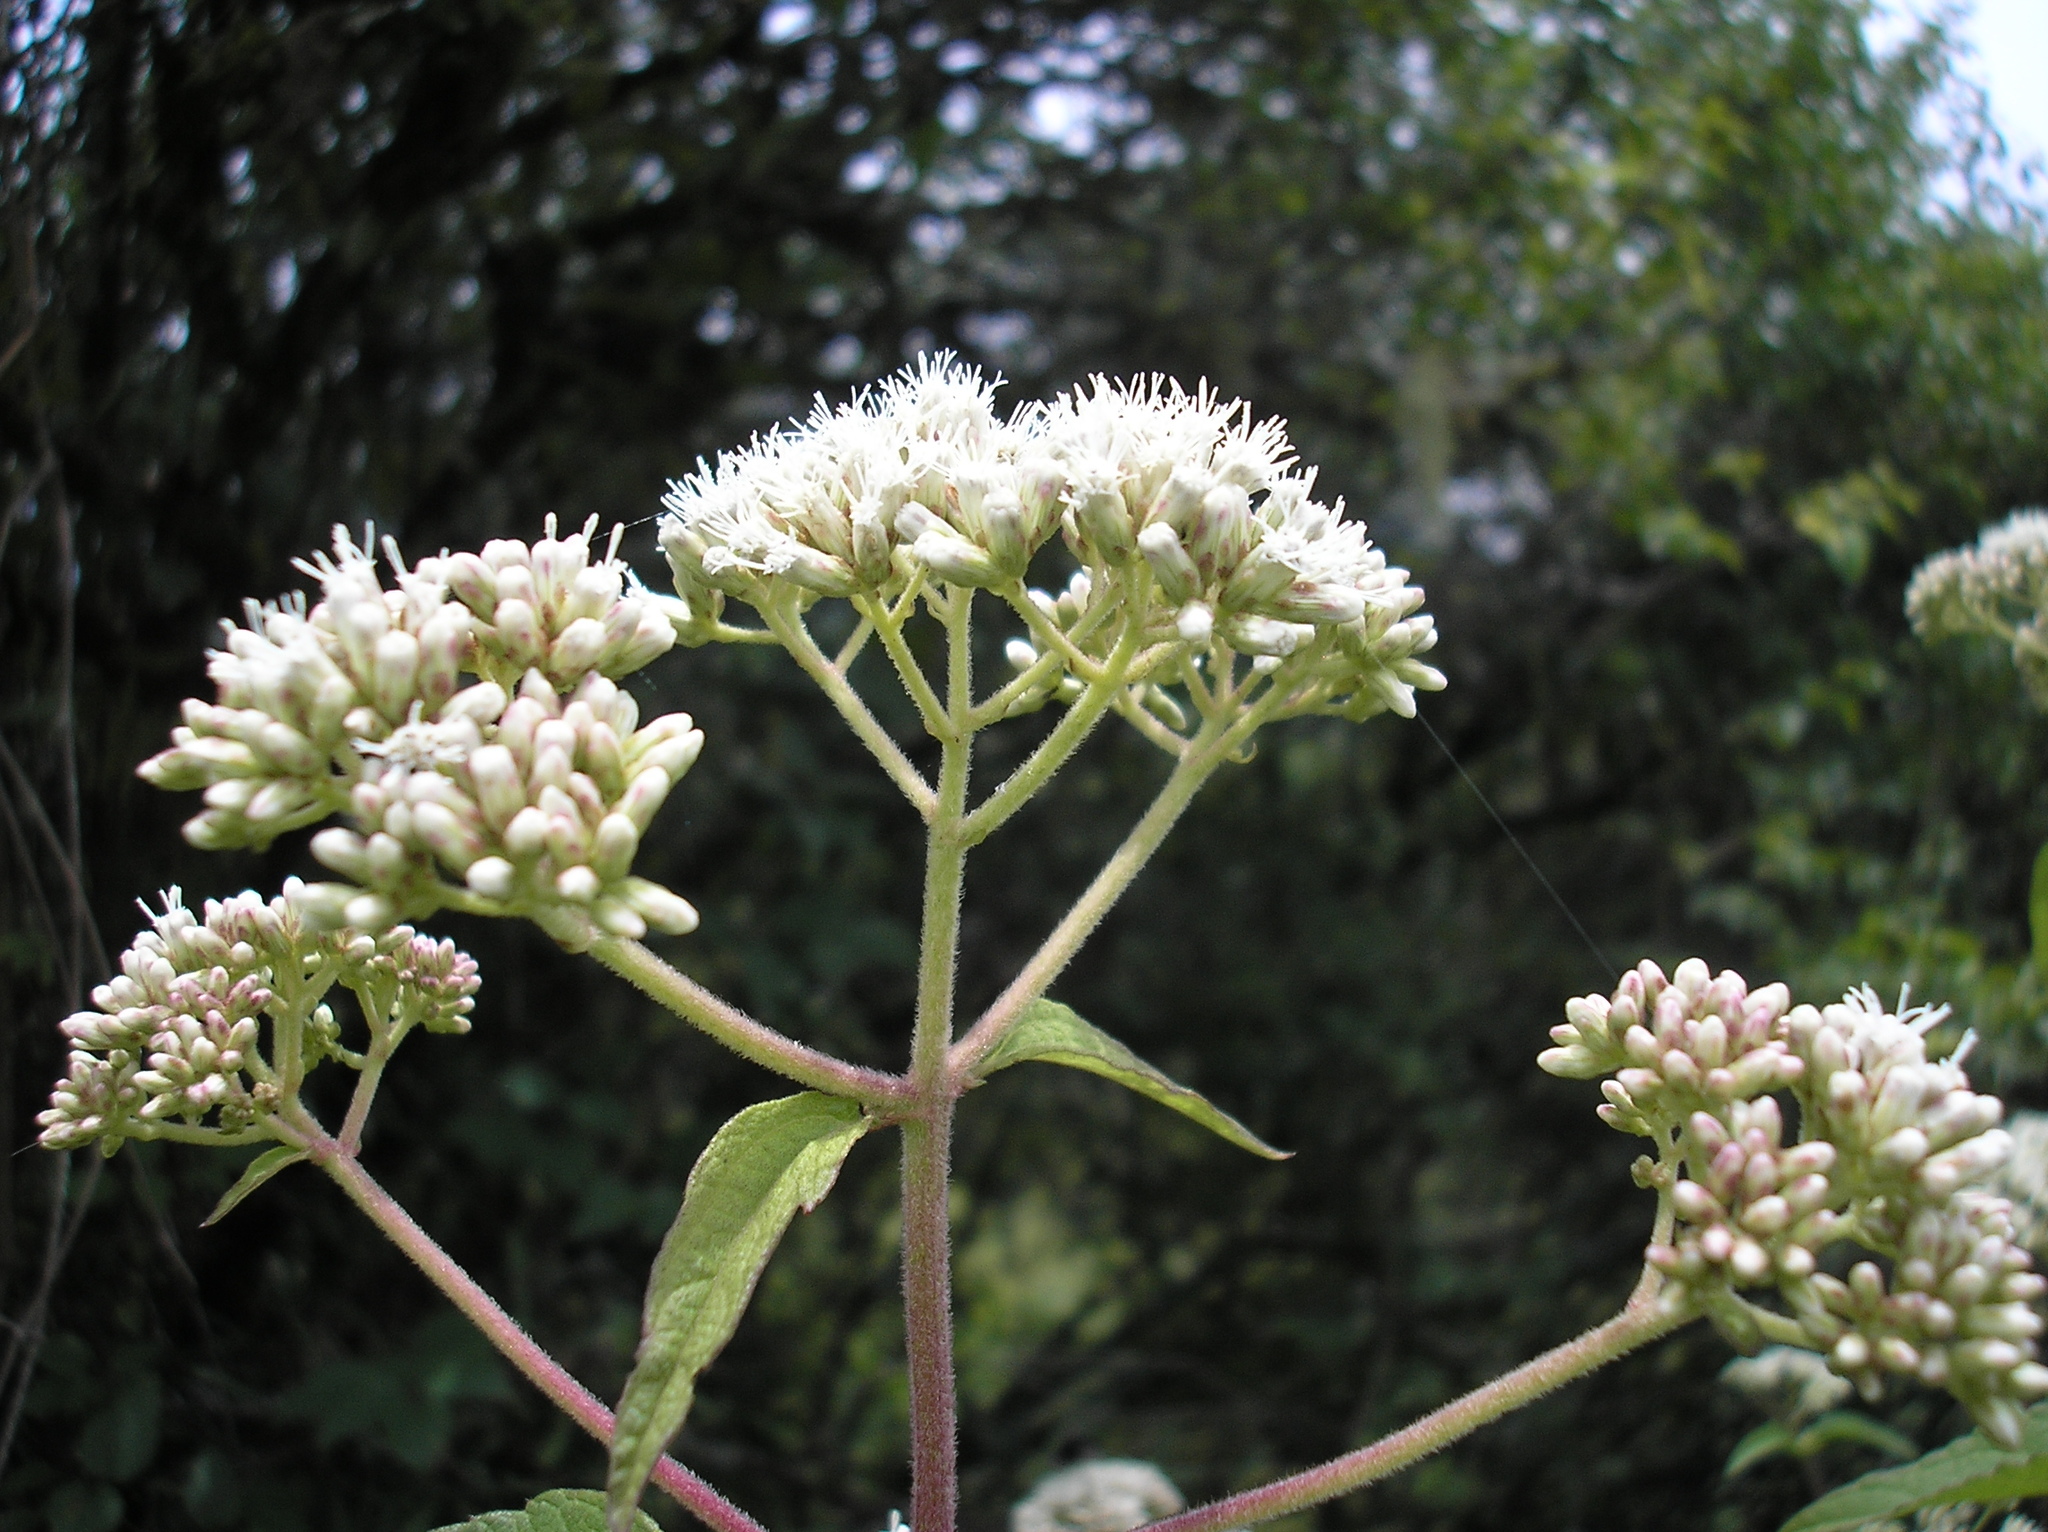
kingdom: Plantae
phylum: Tracheophyta
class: Magnoliopsida
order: Asterales
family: Asteraceae
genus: Ophryosporus
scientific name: Ophryosporus macrodon
